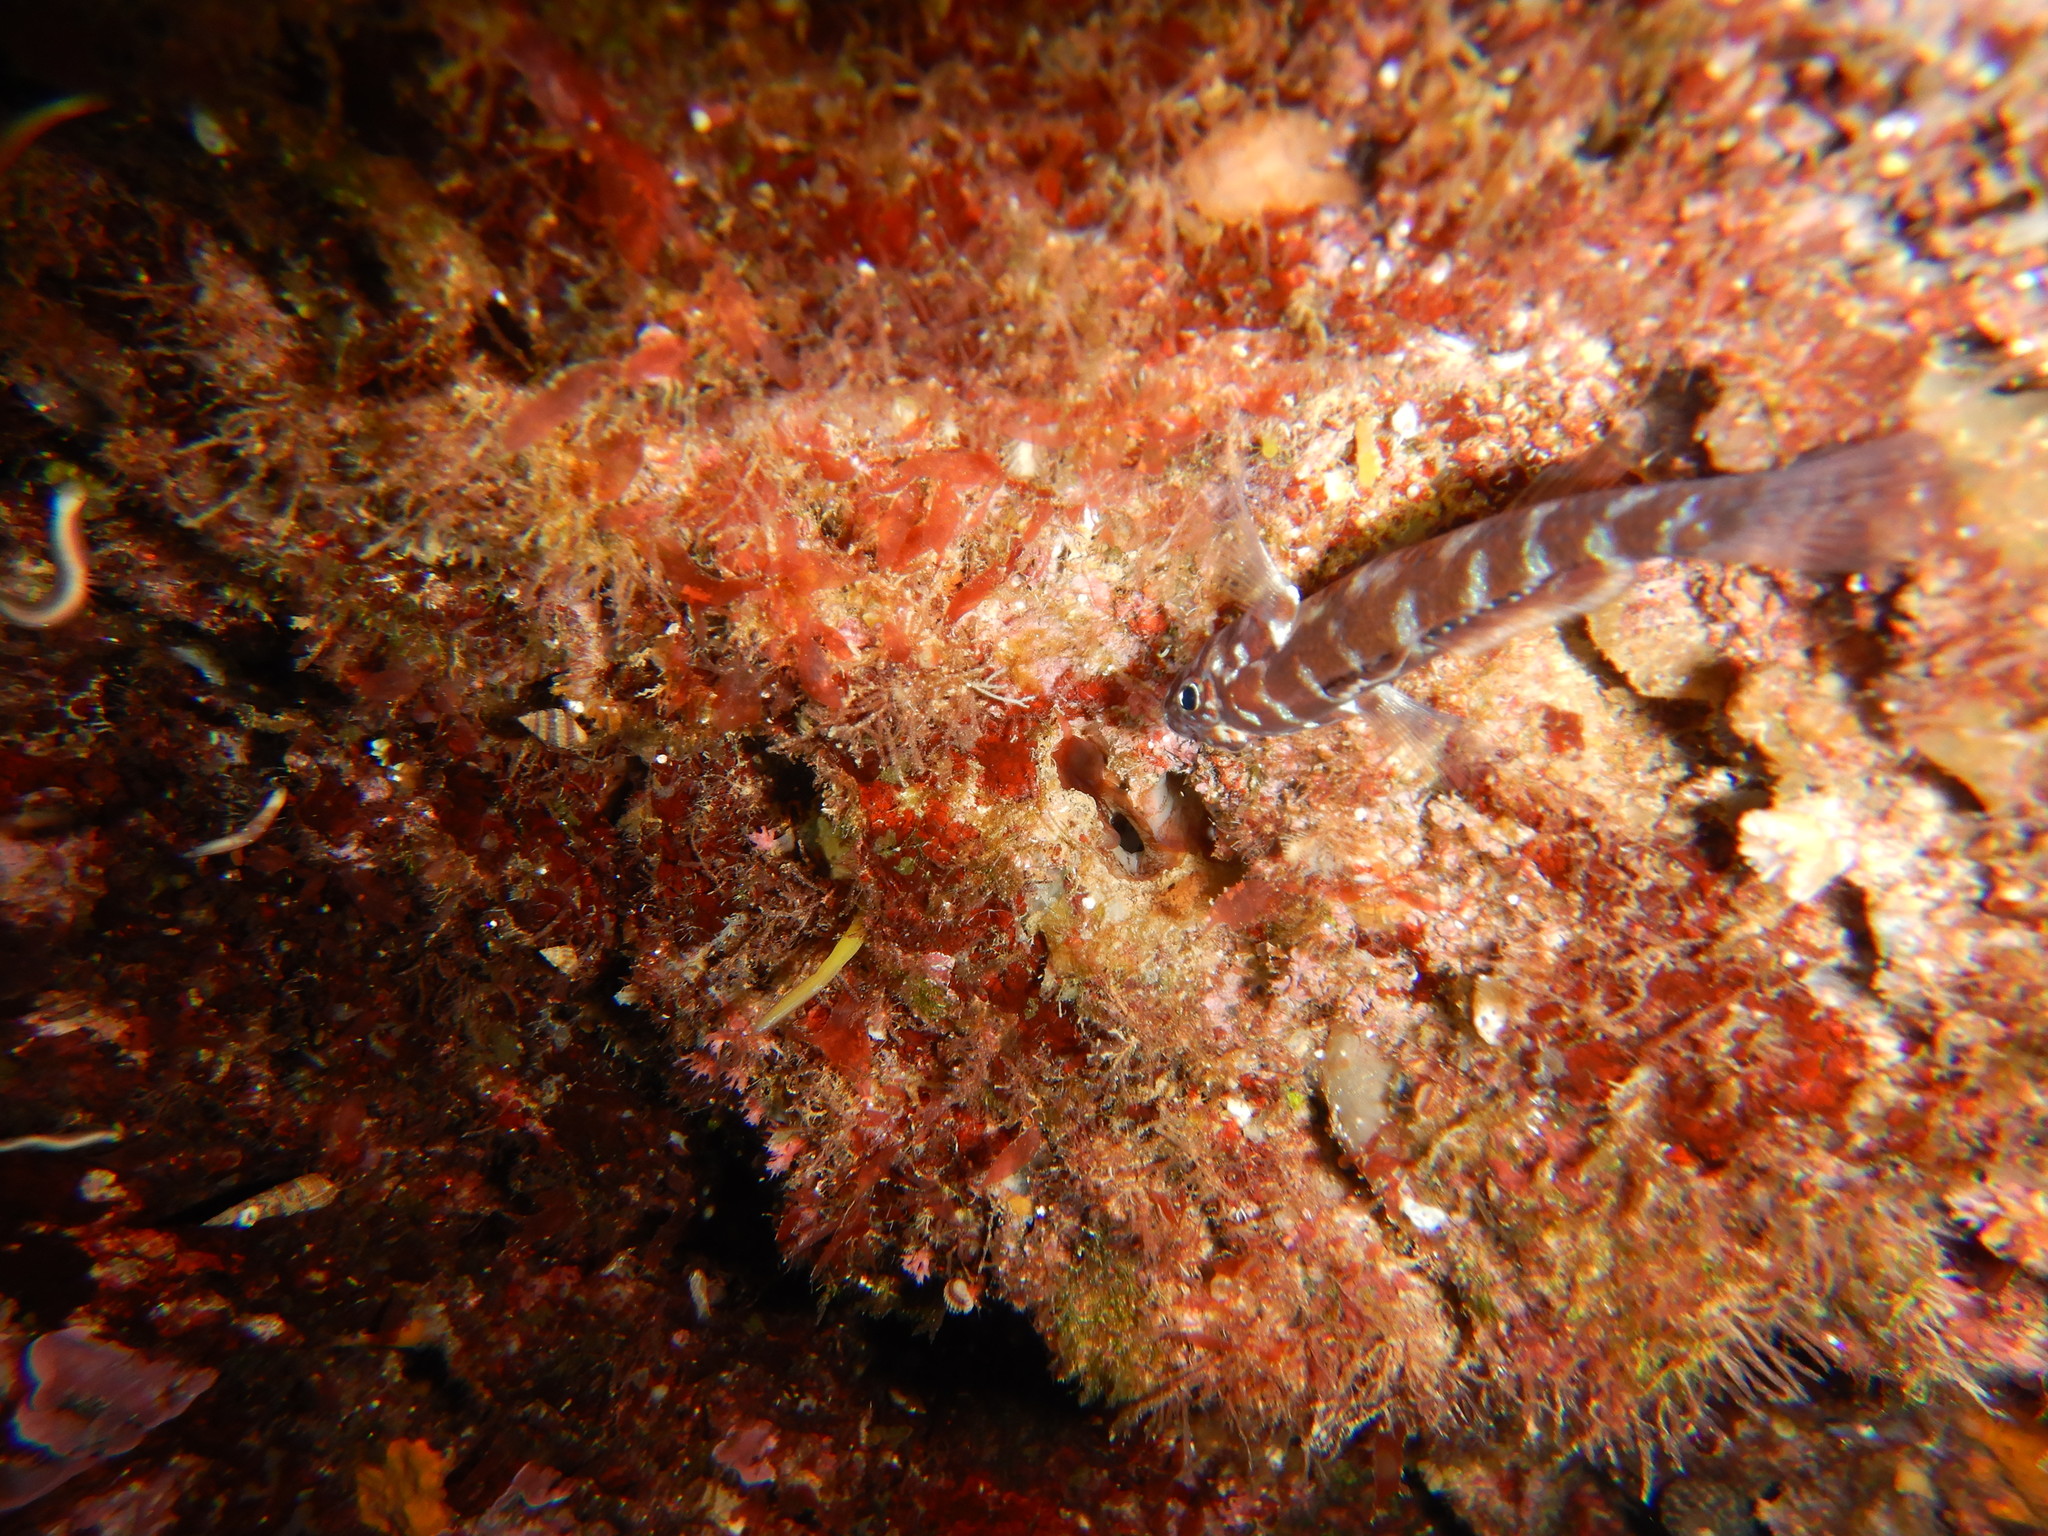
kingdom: Animalia
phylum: Chordata
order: Perciformes
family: Gobiidae
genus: Gammogobius
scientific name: Gammogobius steinitzi
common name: Steinitz's goby
